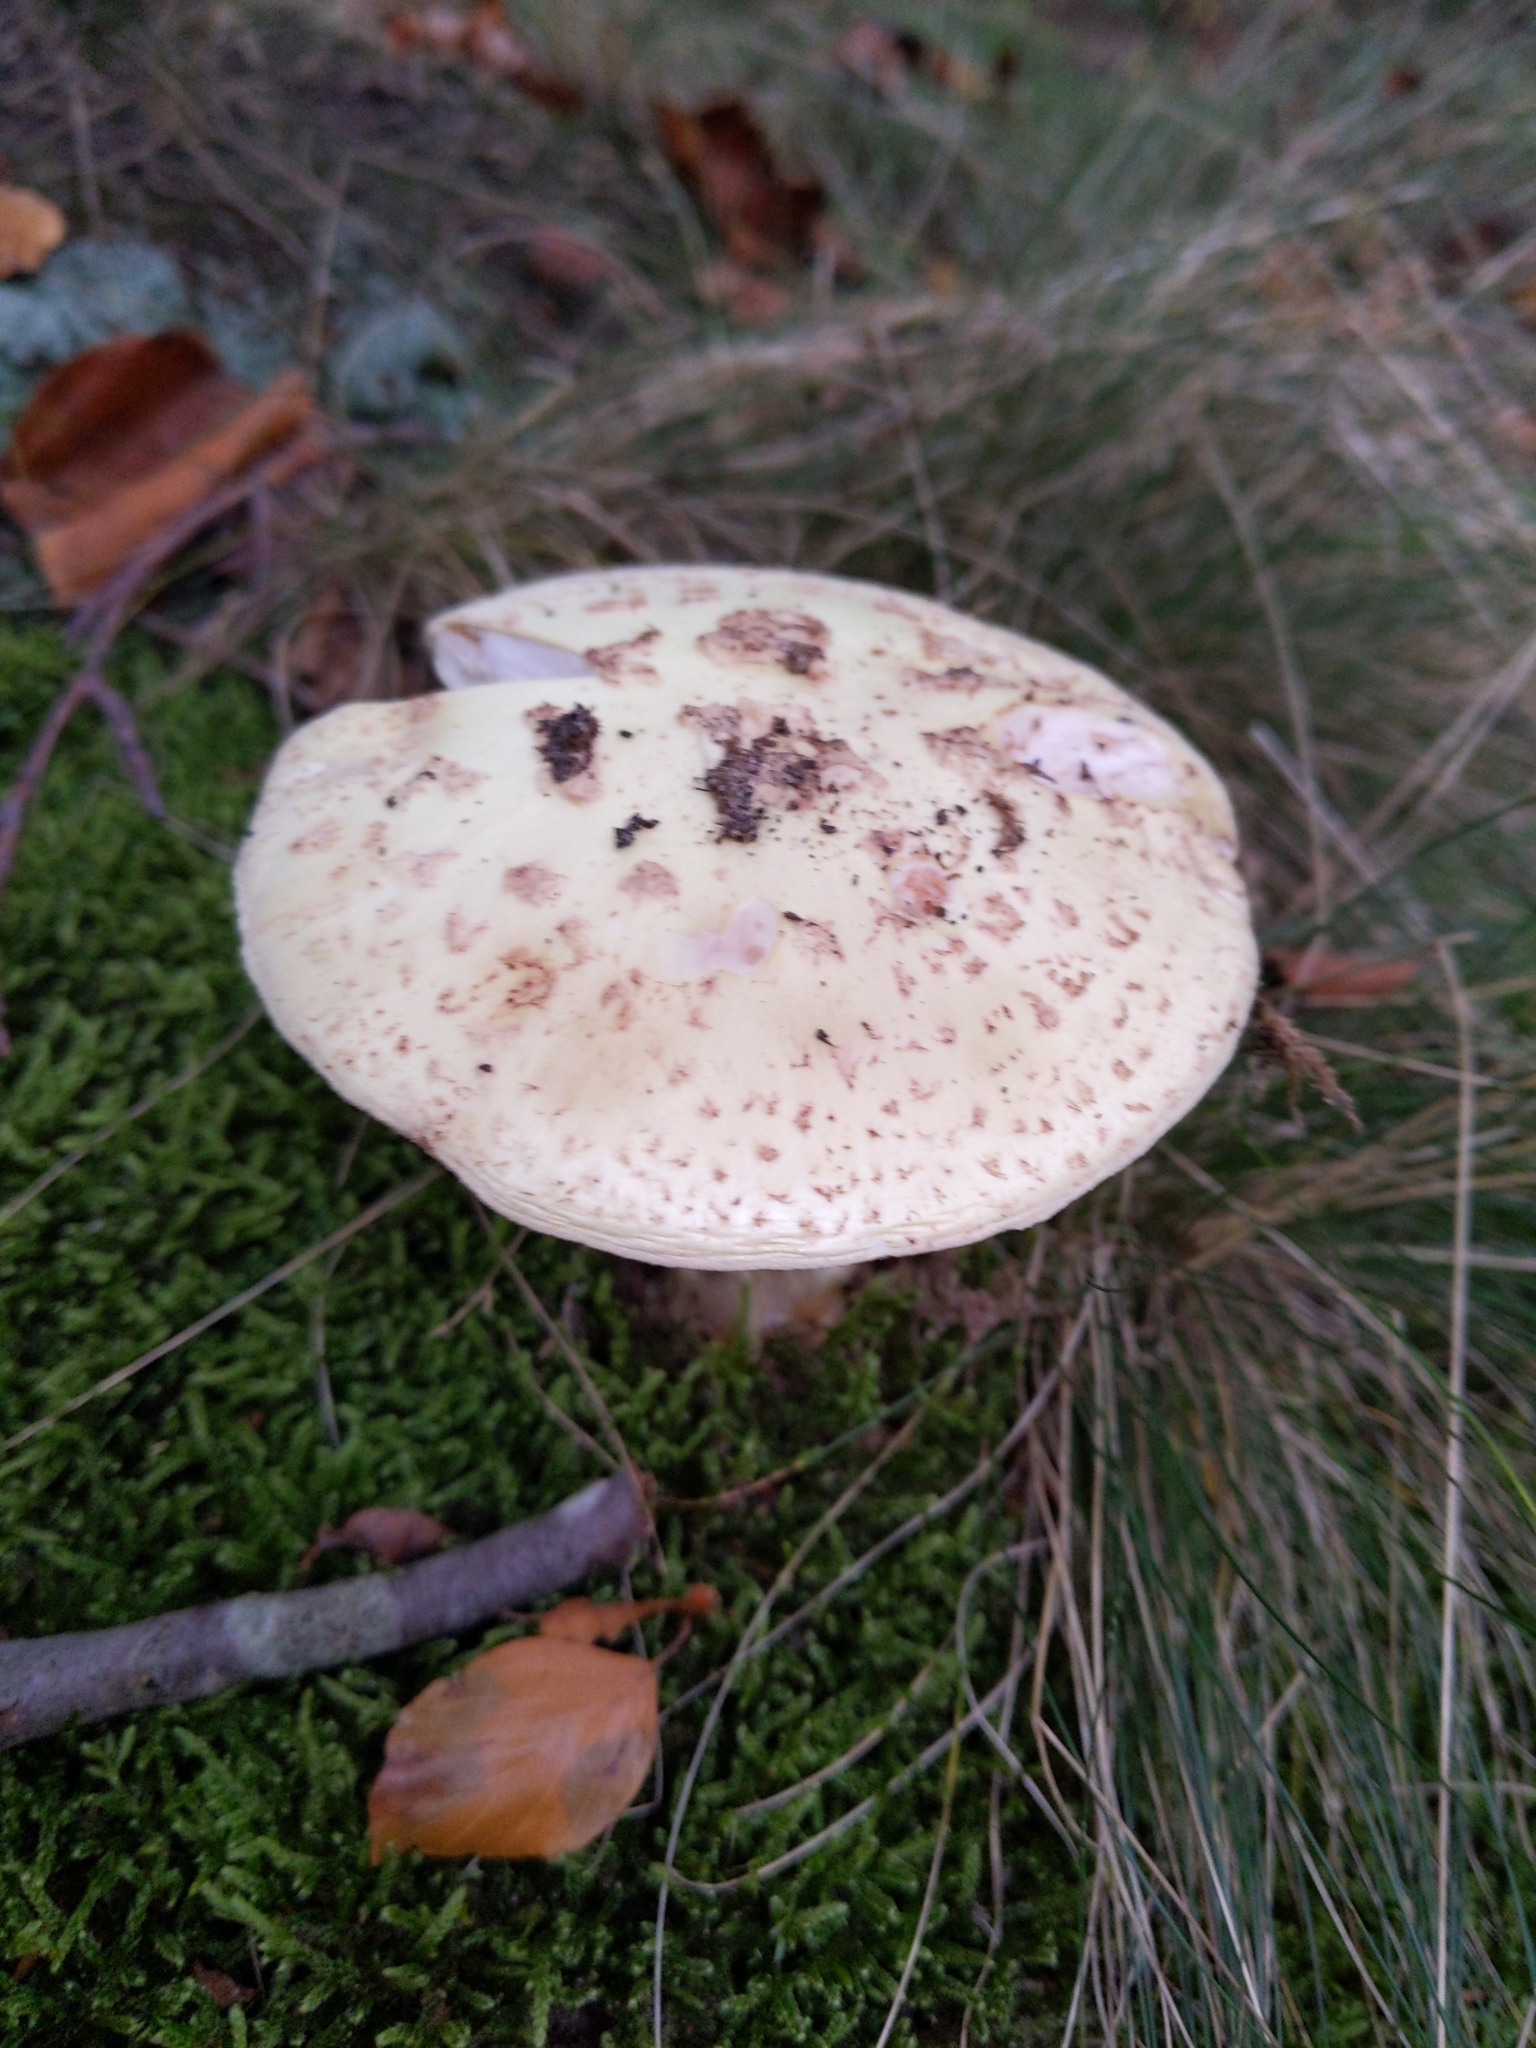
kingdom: Fungi
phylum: Basidiomycota
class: Agaricomycetes
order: Agaricales
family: Amanitaceae
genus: Amanita
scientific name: Amanita citrina
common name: False death-cap
